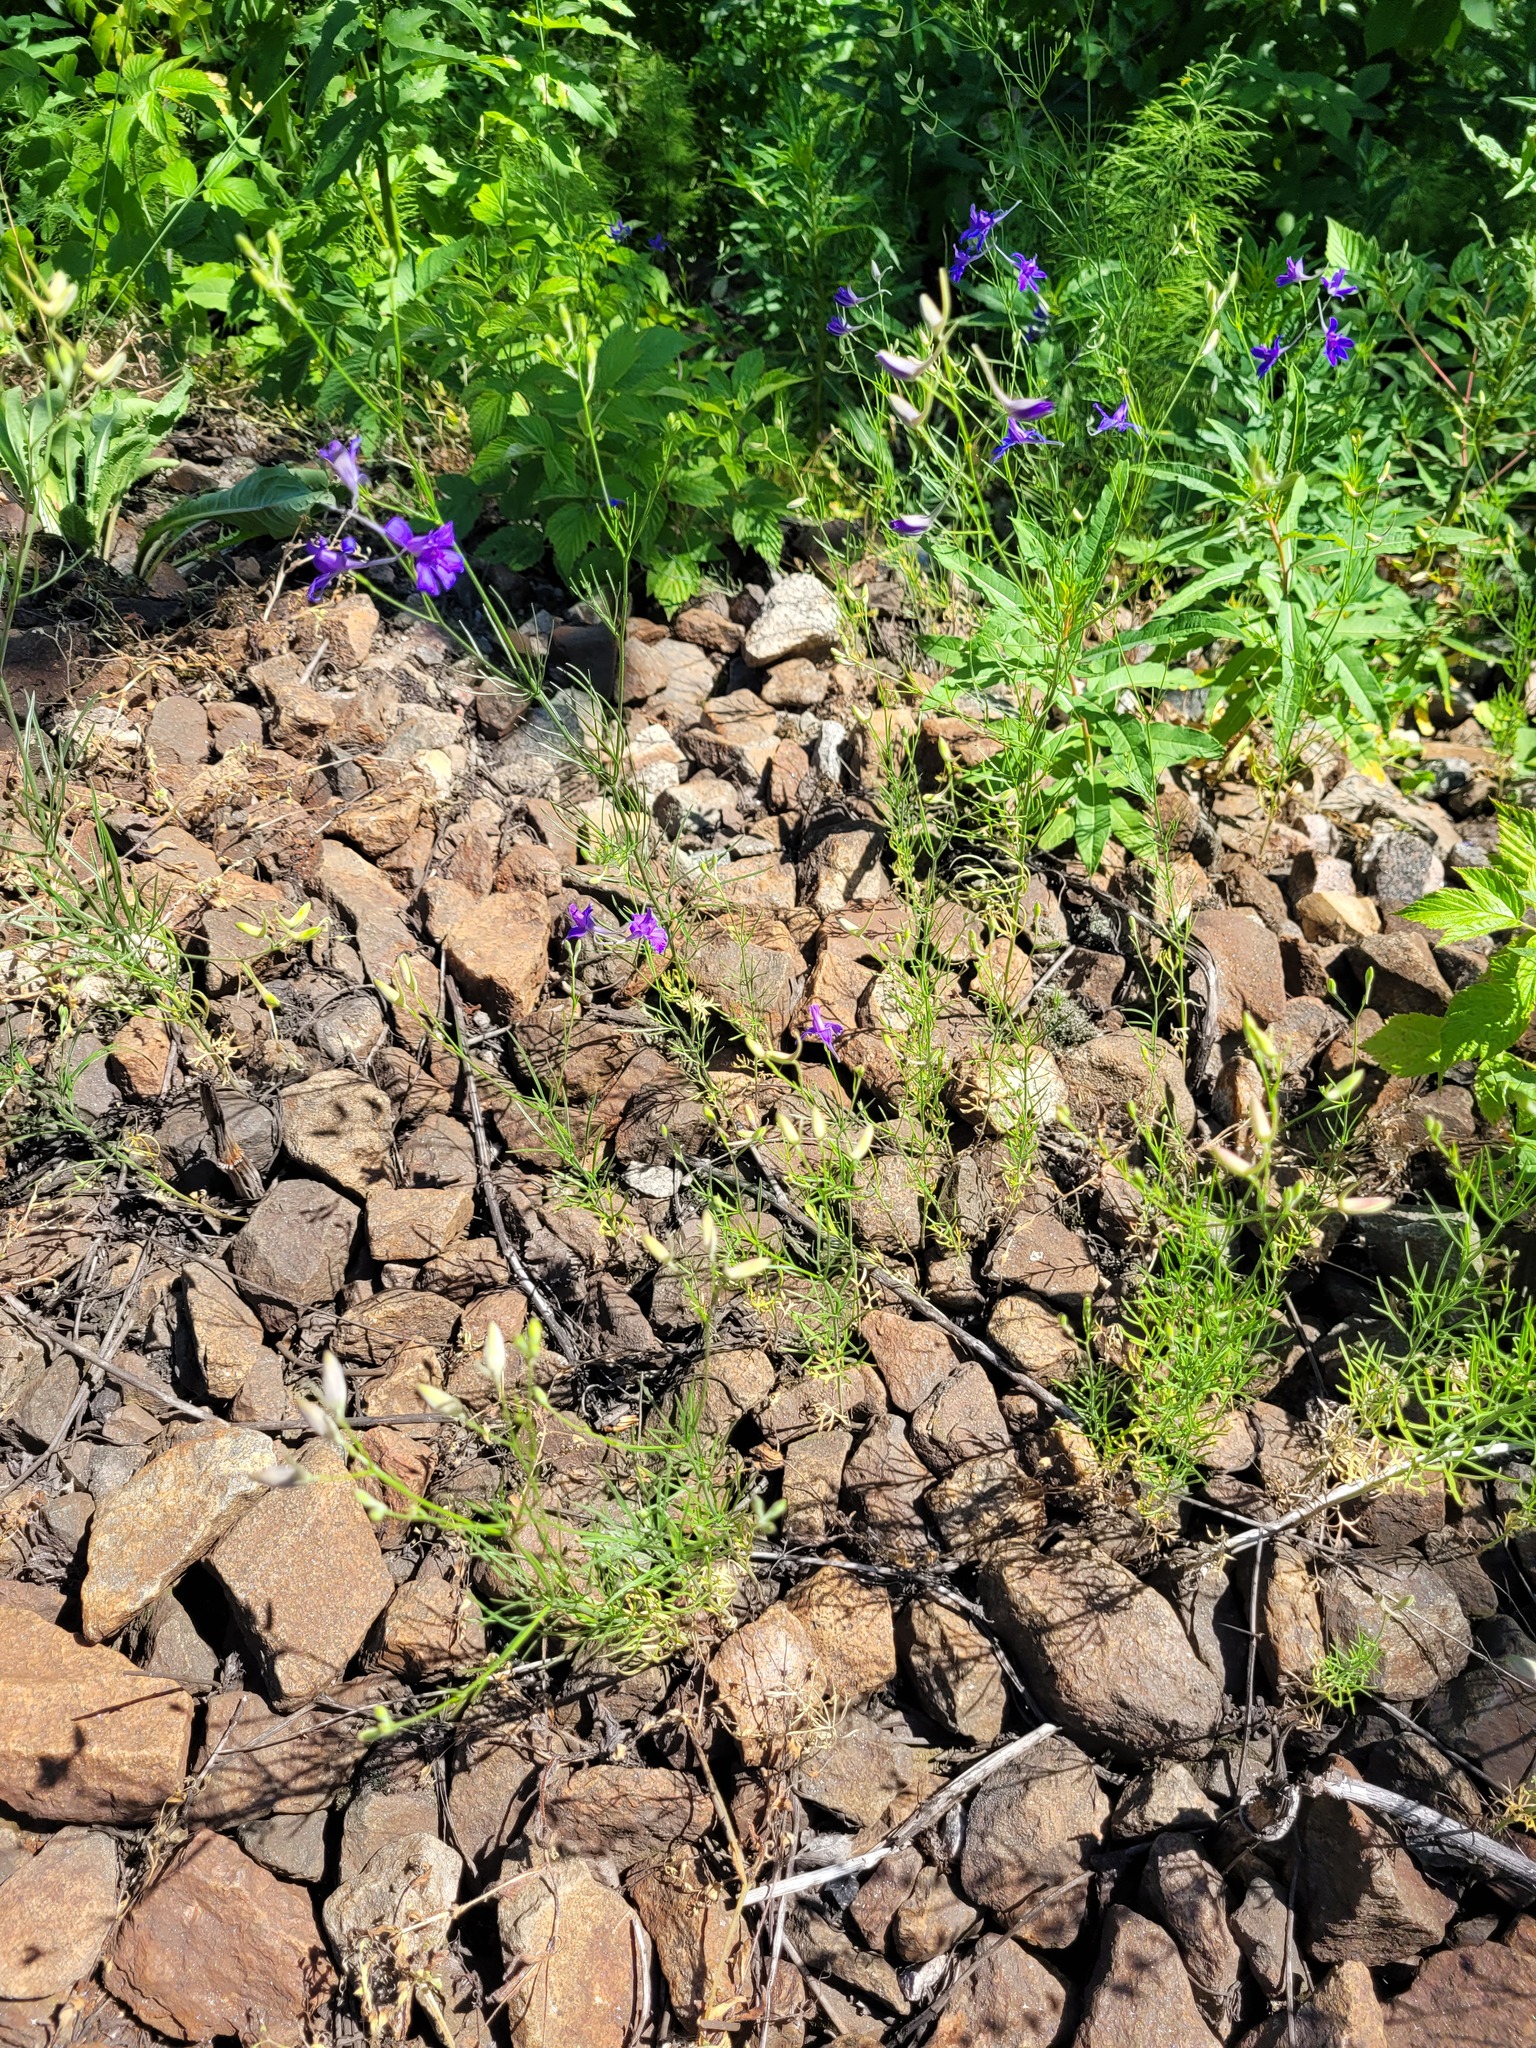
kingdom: Plantae
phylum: Tracheophyta
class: Magnoliopsida
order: Ranunculales
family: Ranunculaceae
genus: Delphinium
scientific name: Delphinium consolida
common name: Branching larkspur
